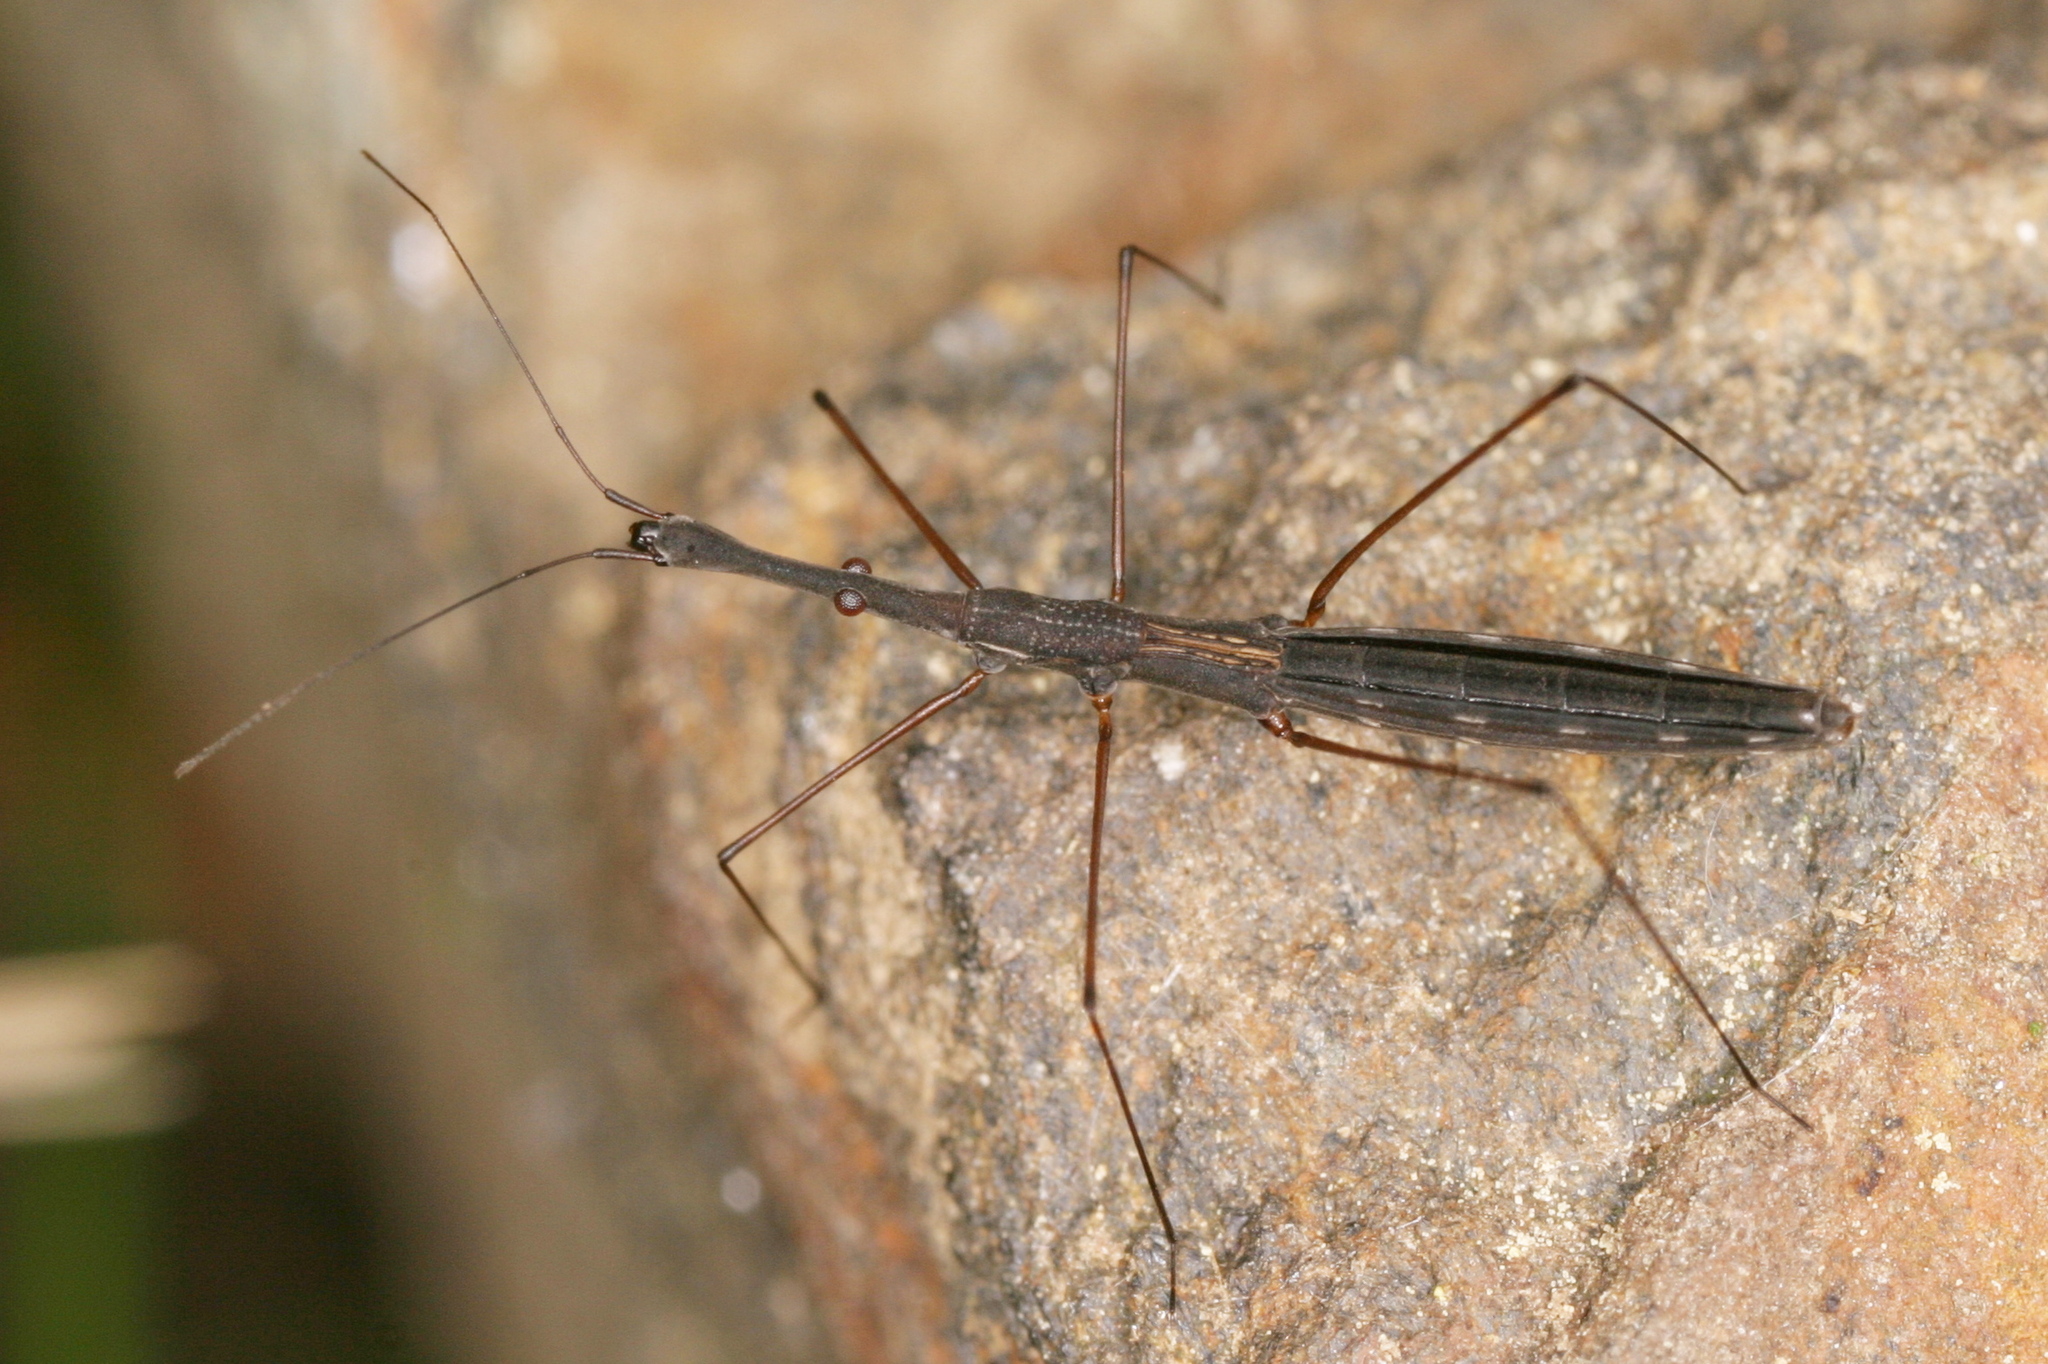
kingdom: Animalia
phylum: Arthropoda
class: Insecta
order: Hemiptera
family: Hydrometridae
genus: Hydrometra
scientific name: Hydrometra stagnorum
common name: Water measurer
